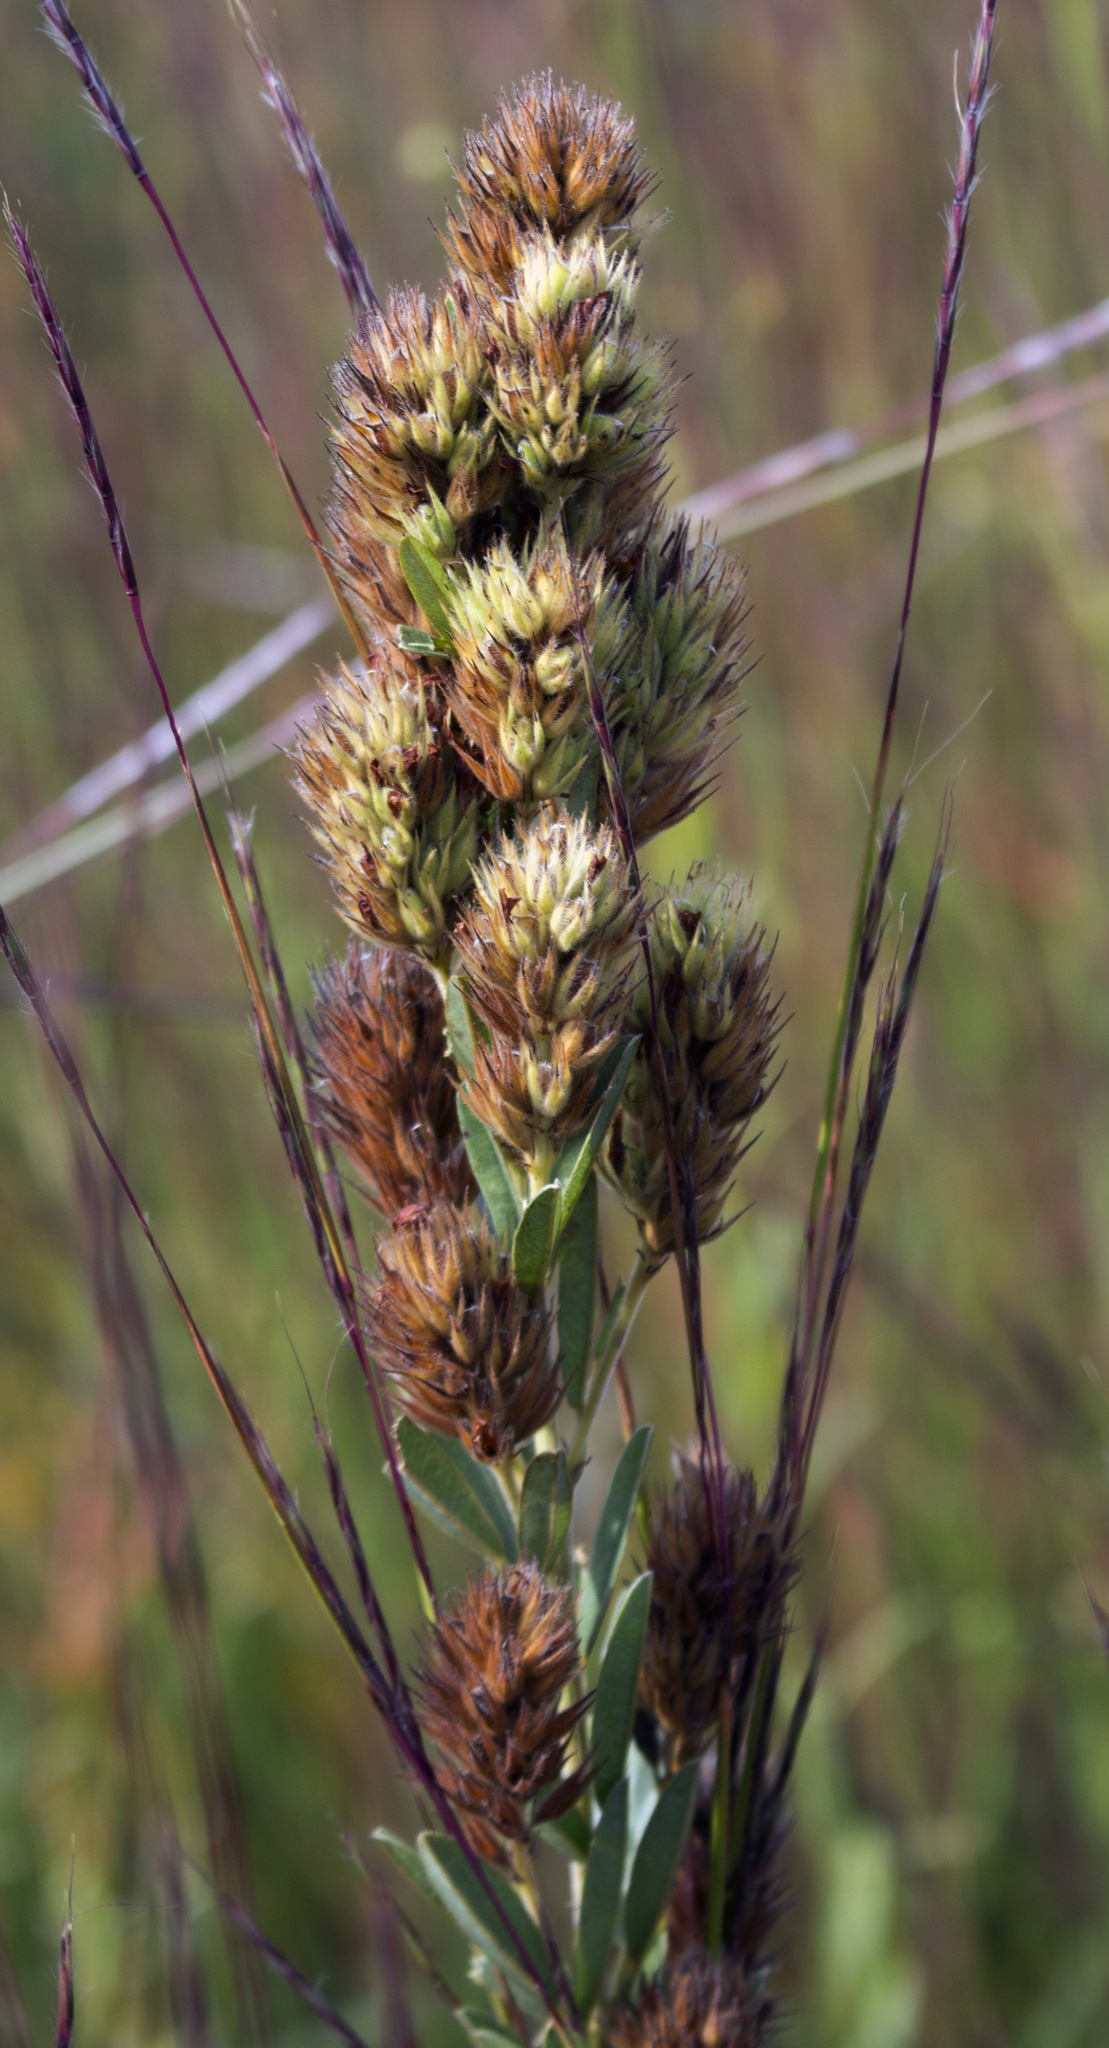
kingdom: Plantae
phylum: Tracheophyta
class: Magnoliopsida
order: Fabales
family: Fabaceae
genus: Lespedeza
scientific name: Lespedeza capitata
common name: Dusty clover
